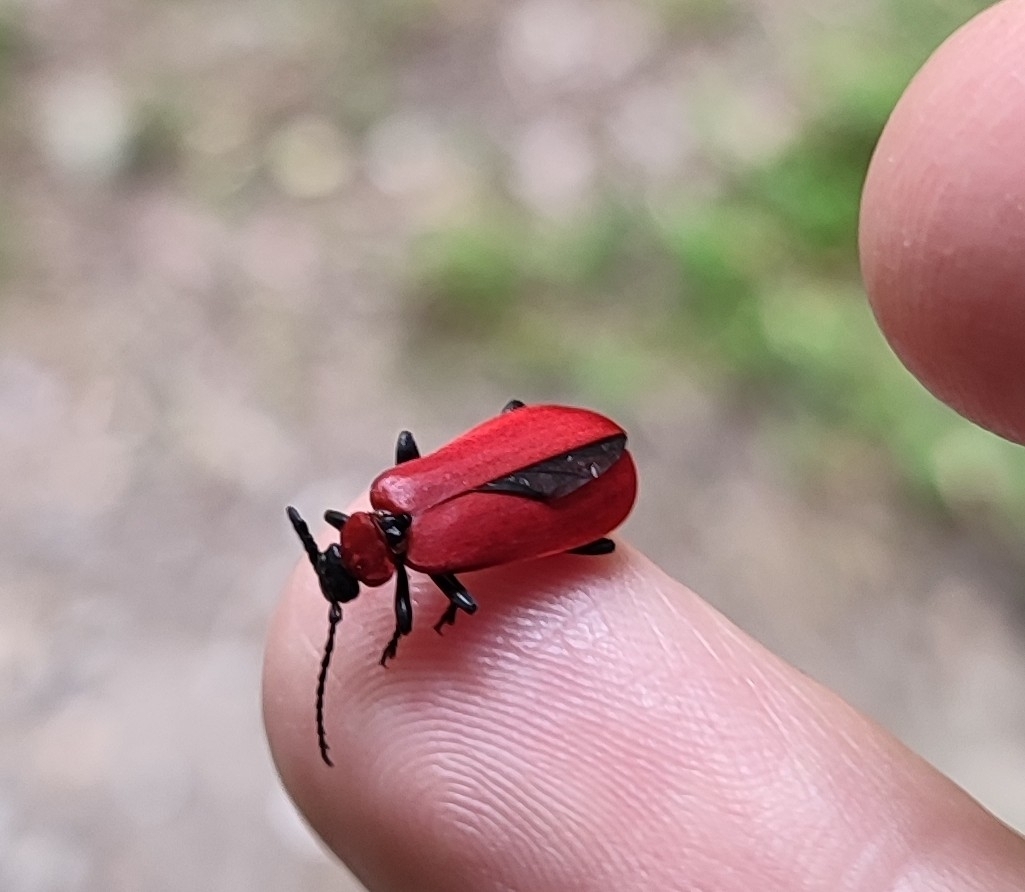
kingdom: Animalia
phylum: Arthropoda
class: Insecta
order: Coleoptera
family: Pyrochroidae
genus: Pyrochroa
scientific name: Pyrochroa coccinea
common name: Black-headed cardinal beetle
